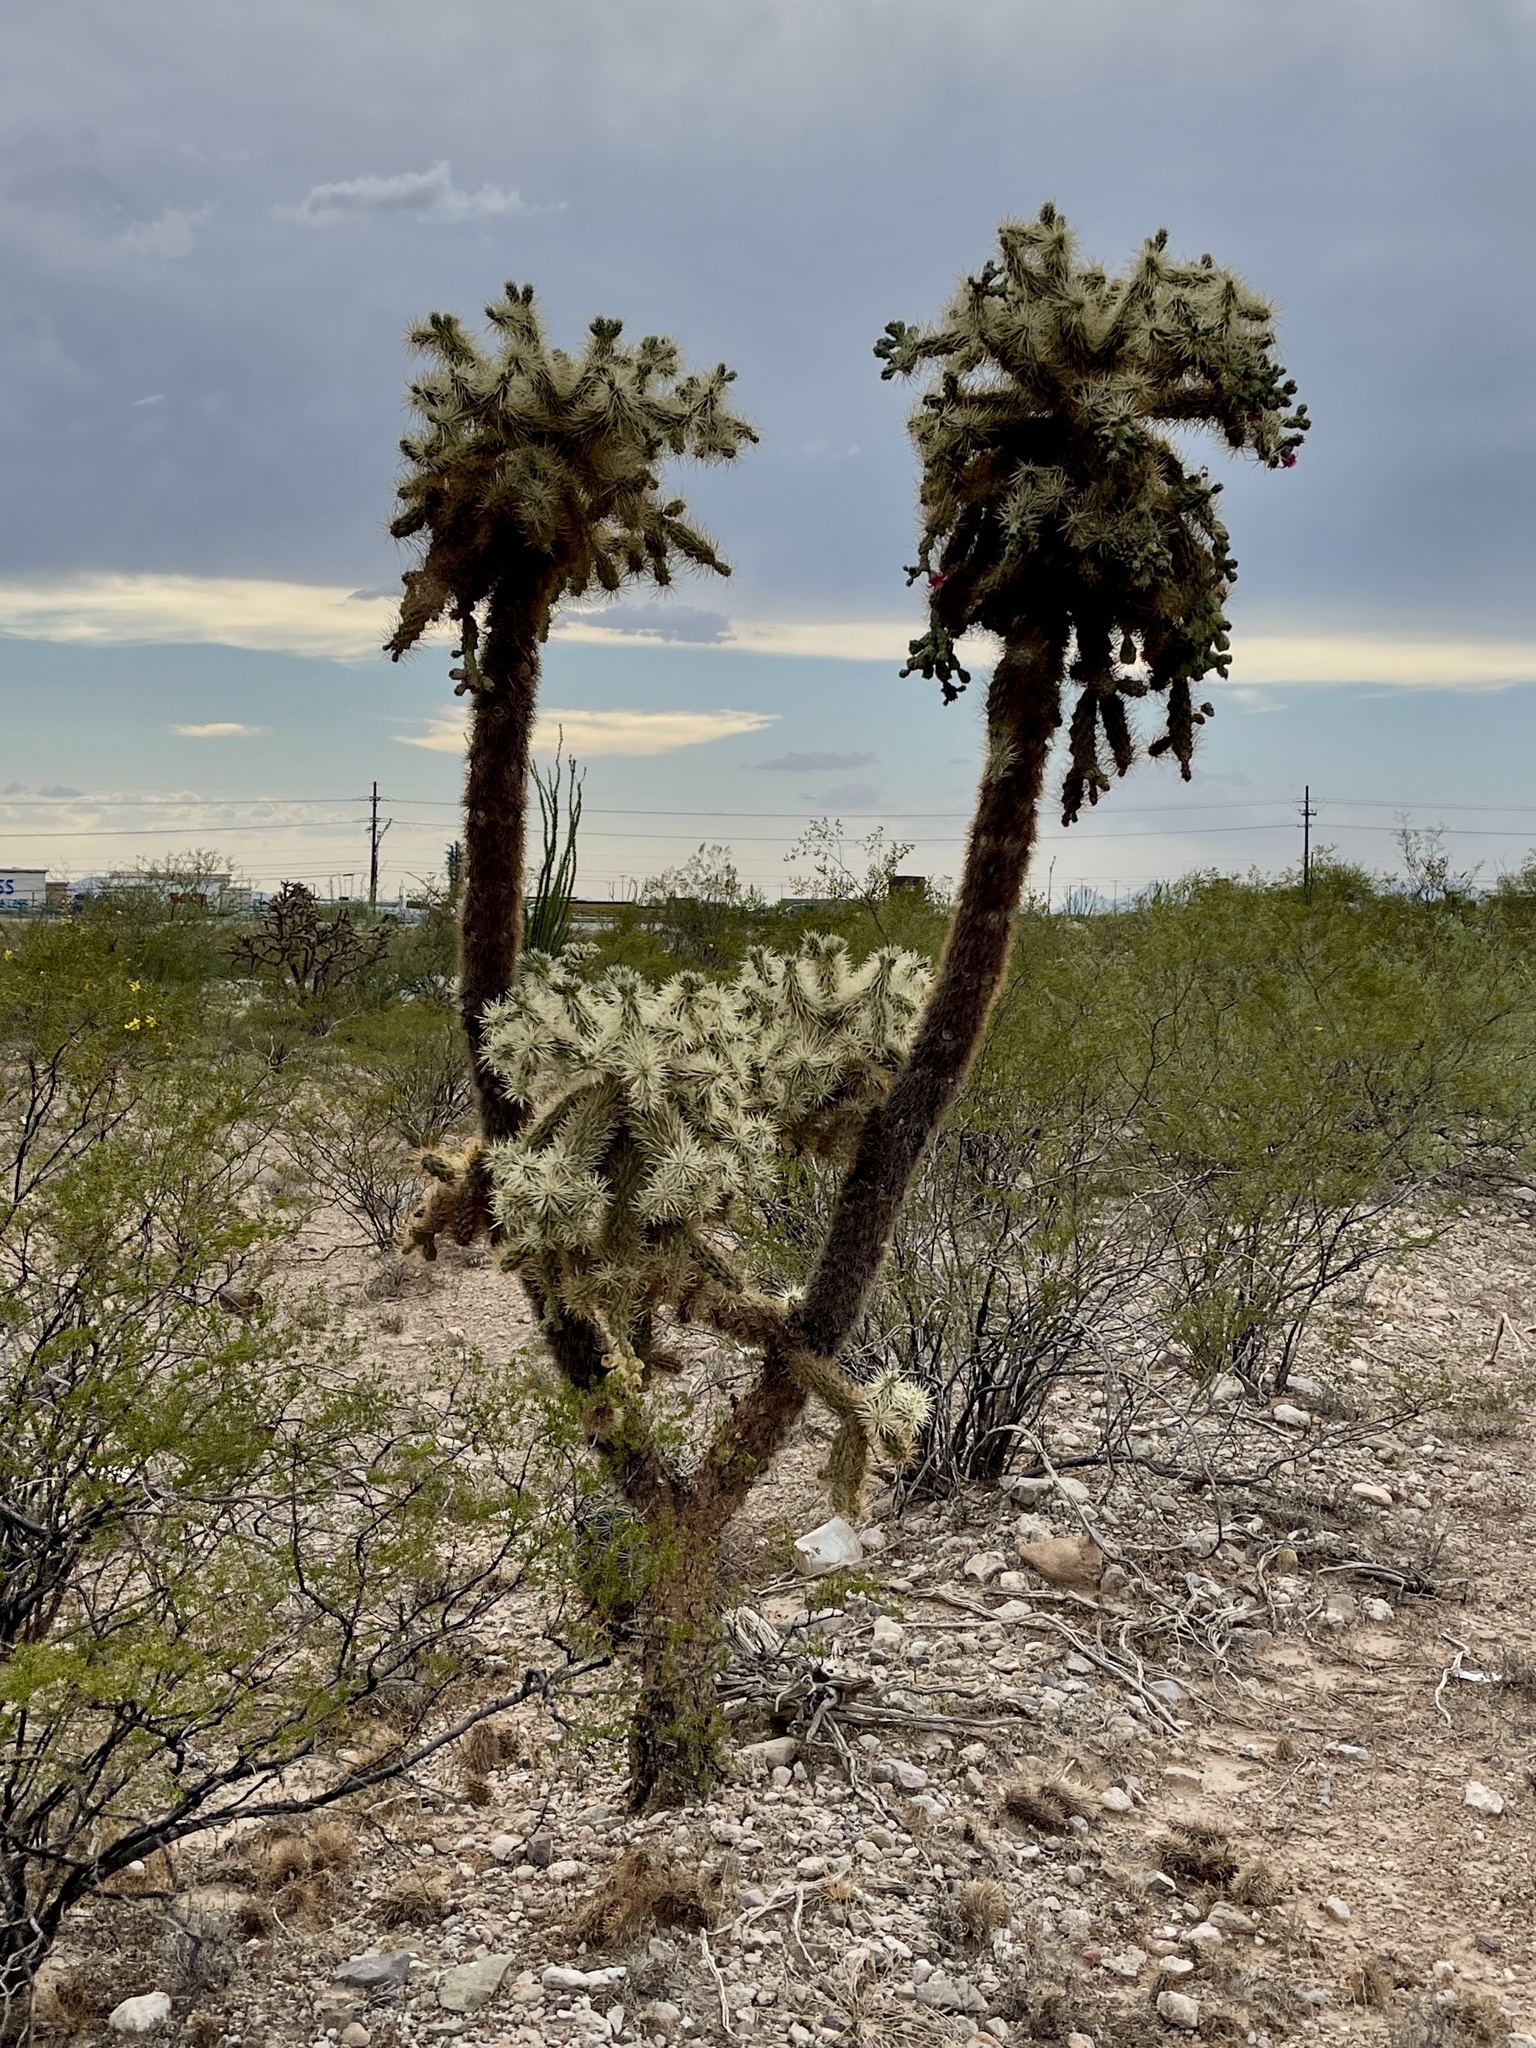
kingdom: Plantae
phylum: Tracheophyta
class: Magnoliopsida
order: Caryophyllales
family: Cactaceae
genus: Cylindropuntia
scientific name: Cylindropuntia fulgida
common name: Jumping cholla
